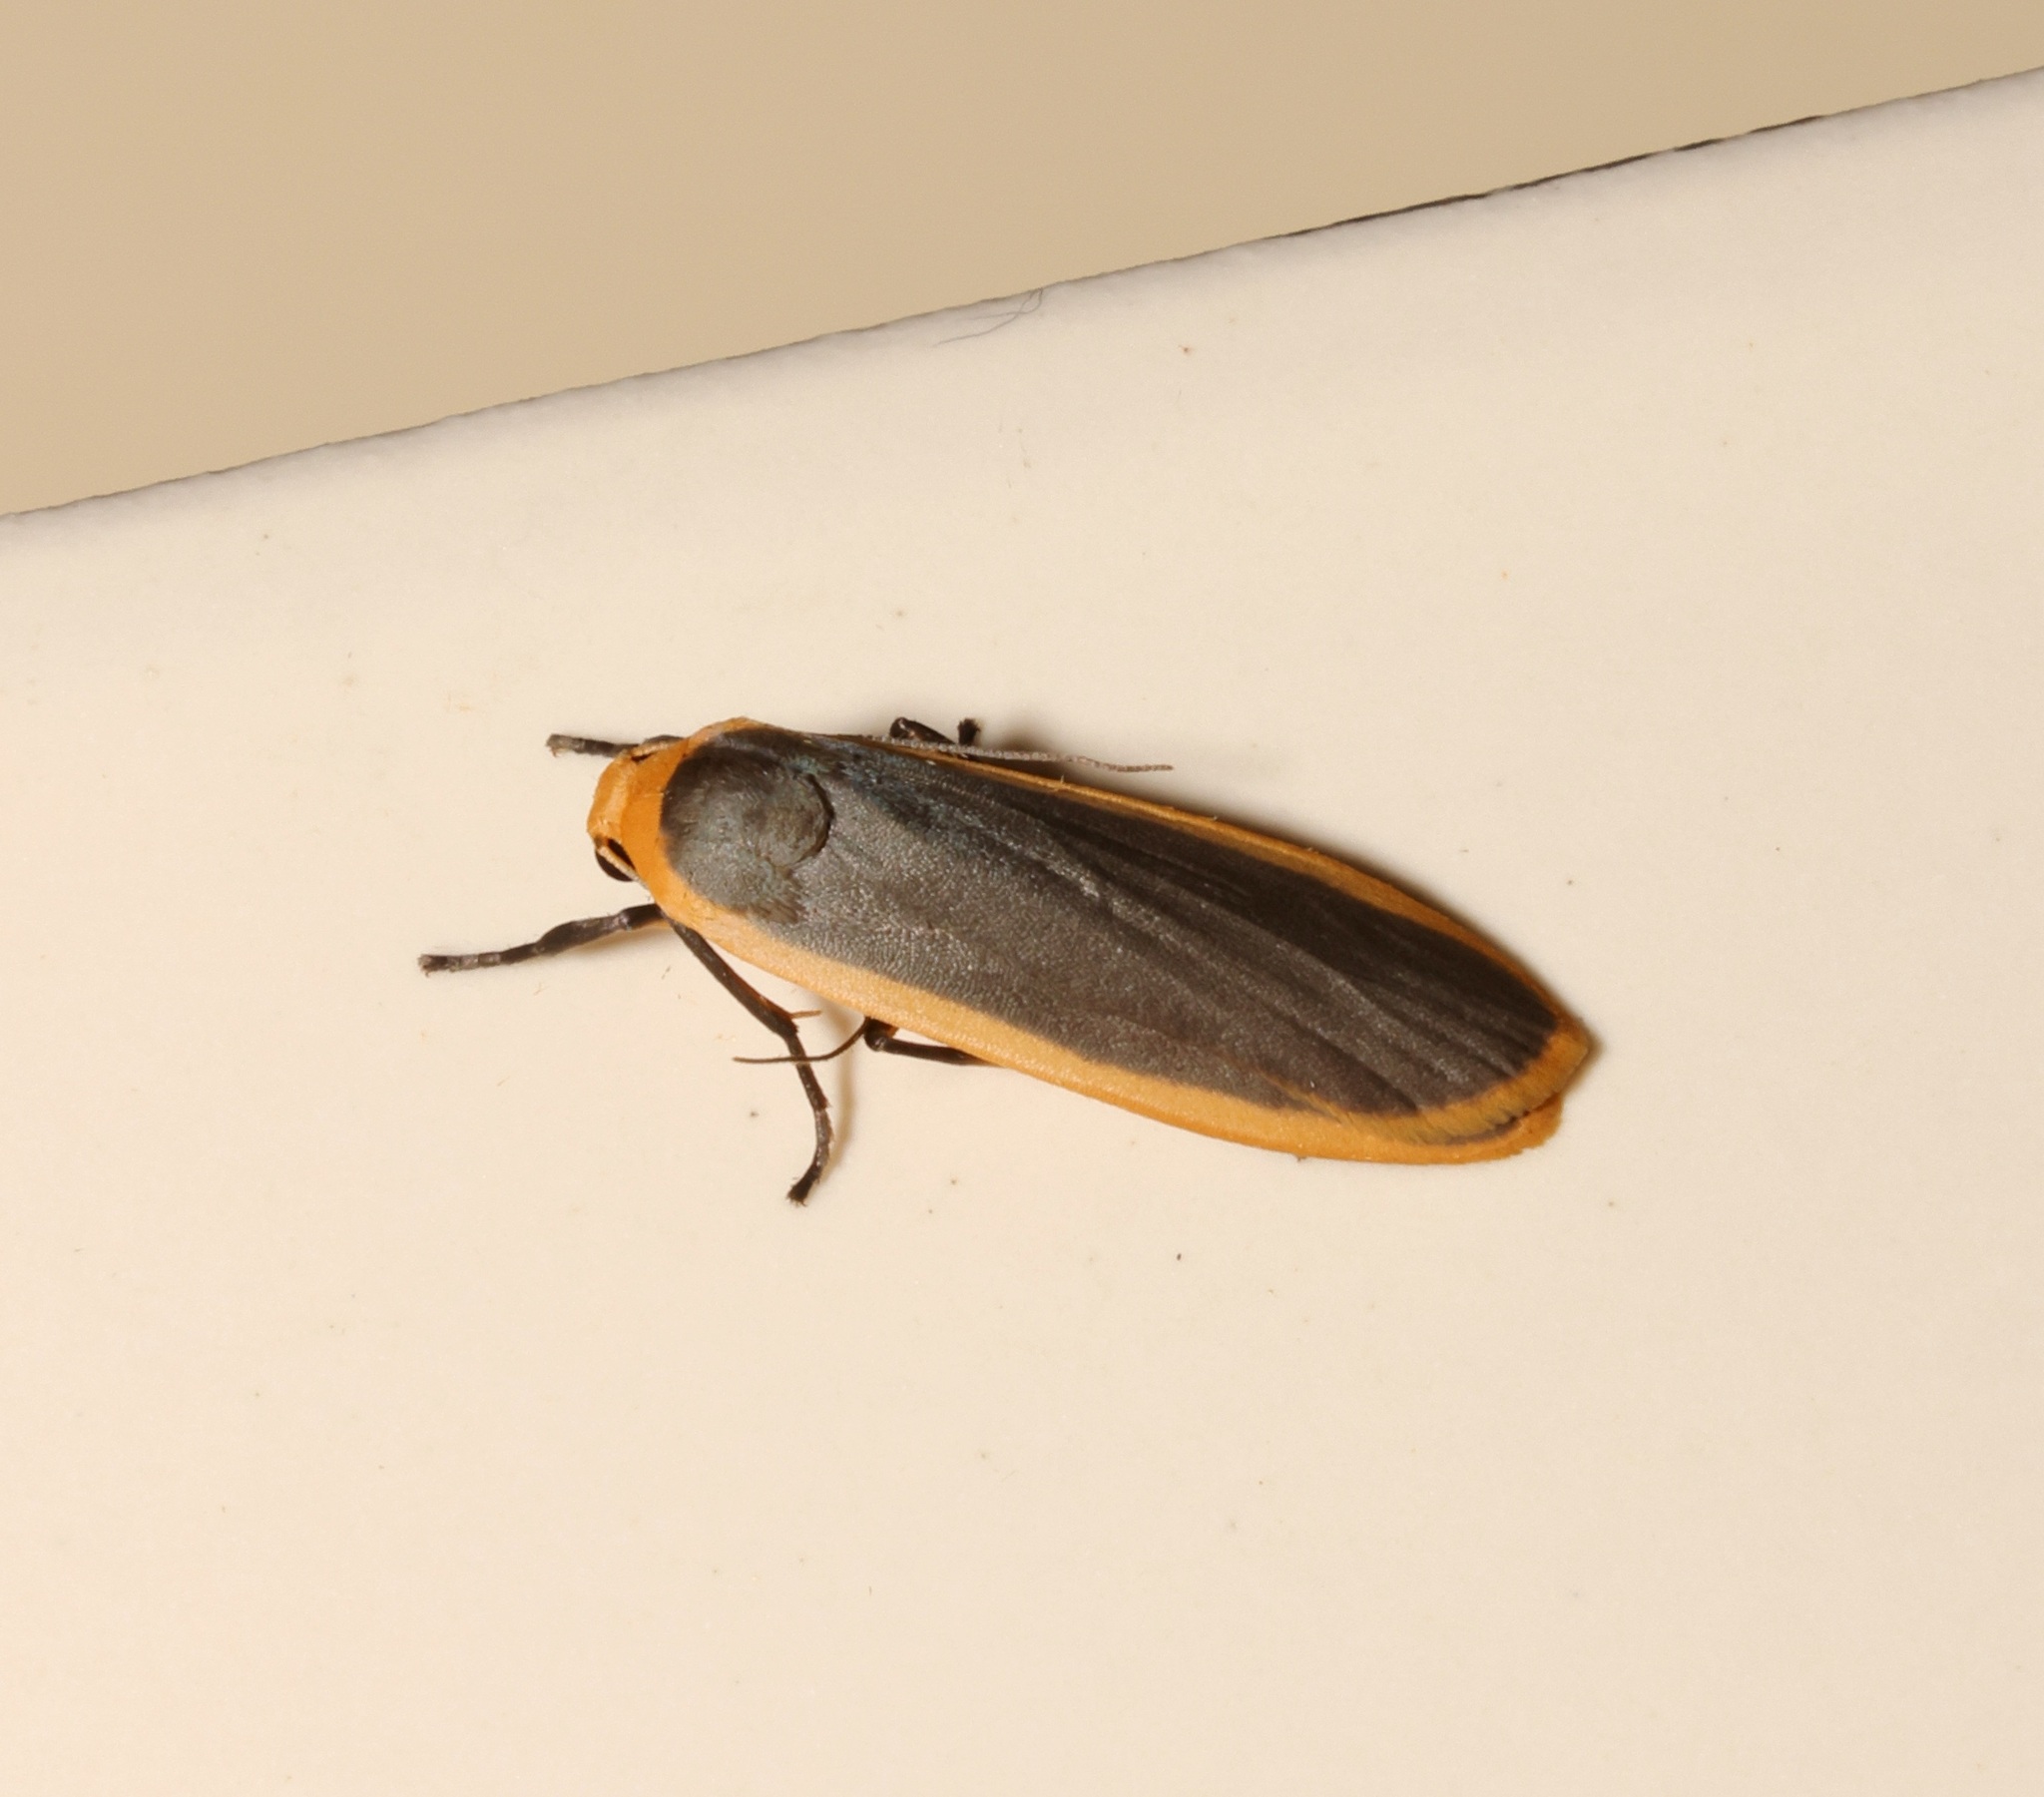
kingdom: Animalia
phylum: Arthropoda
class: Insecta
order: Lepidoptera
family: Erebidae
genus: Brunia
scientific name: Brunia antica
